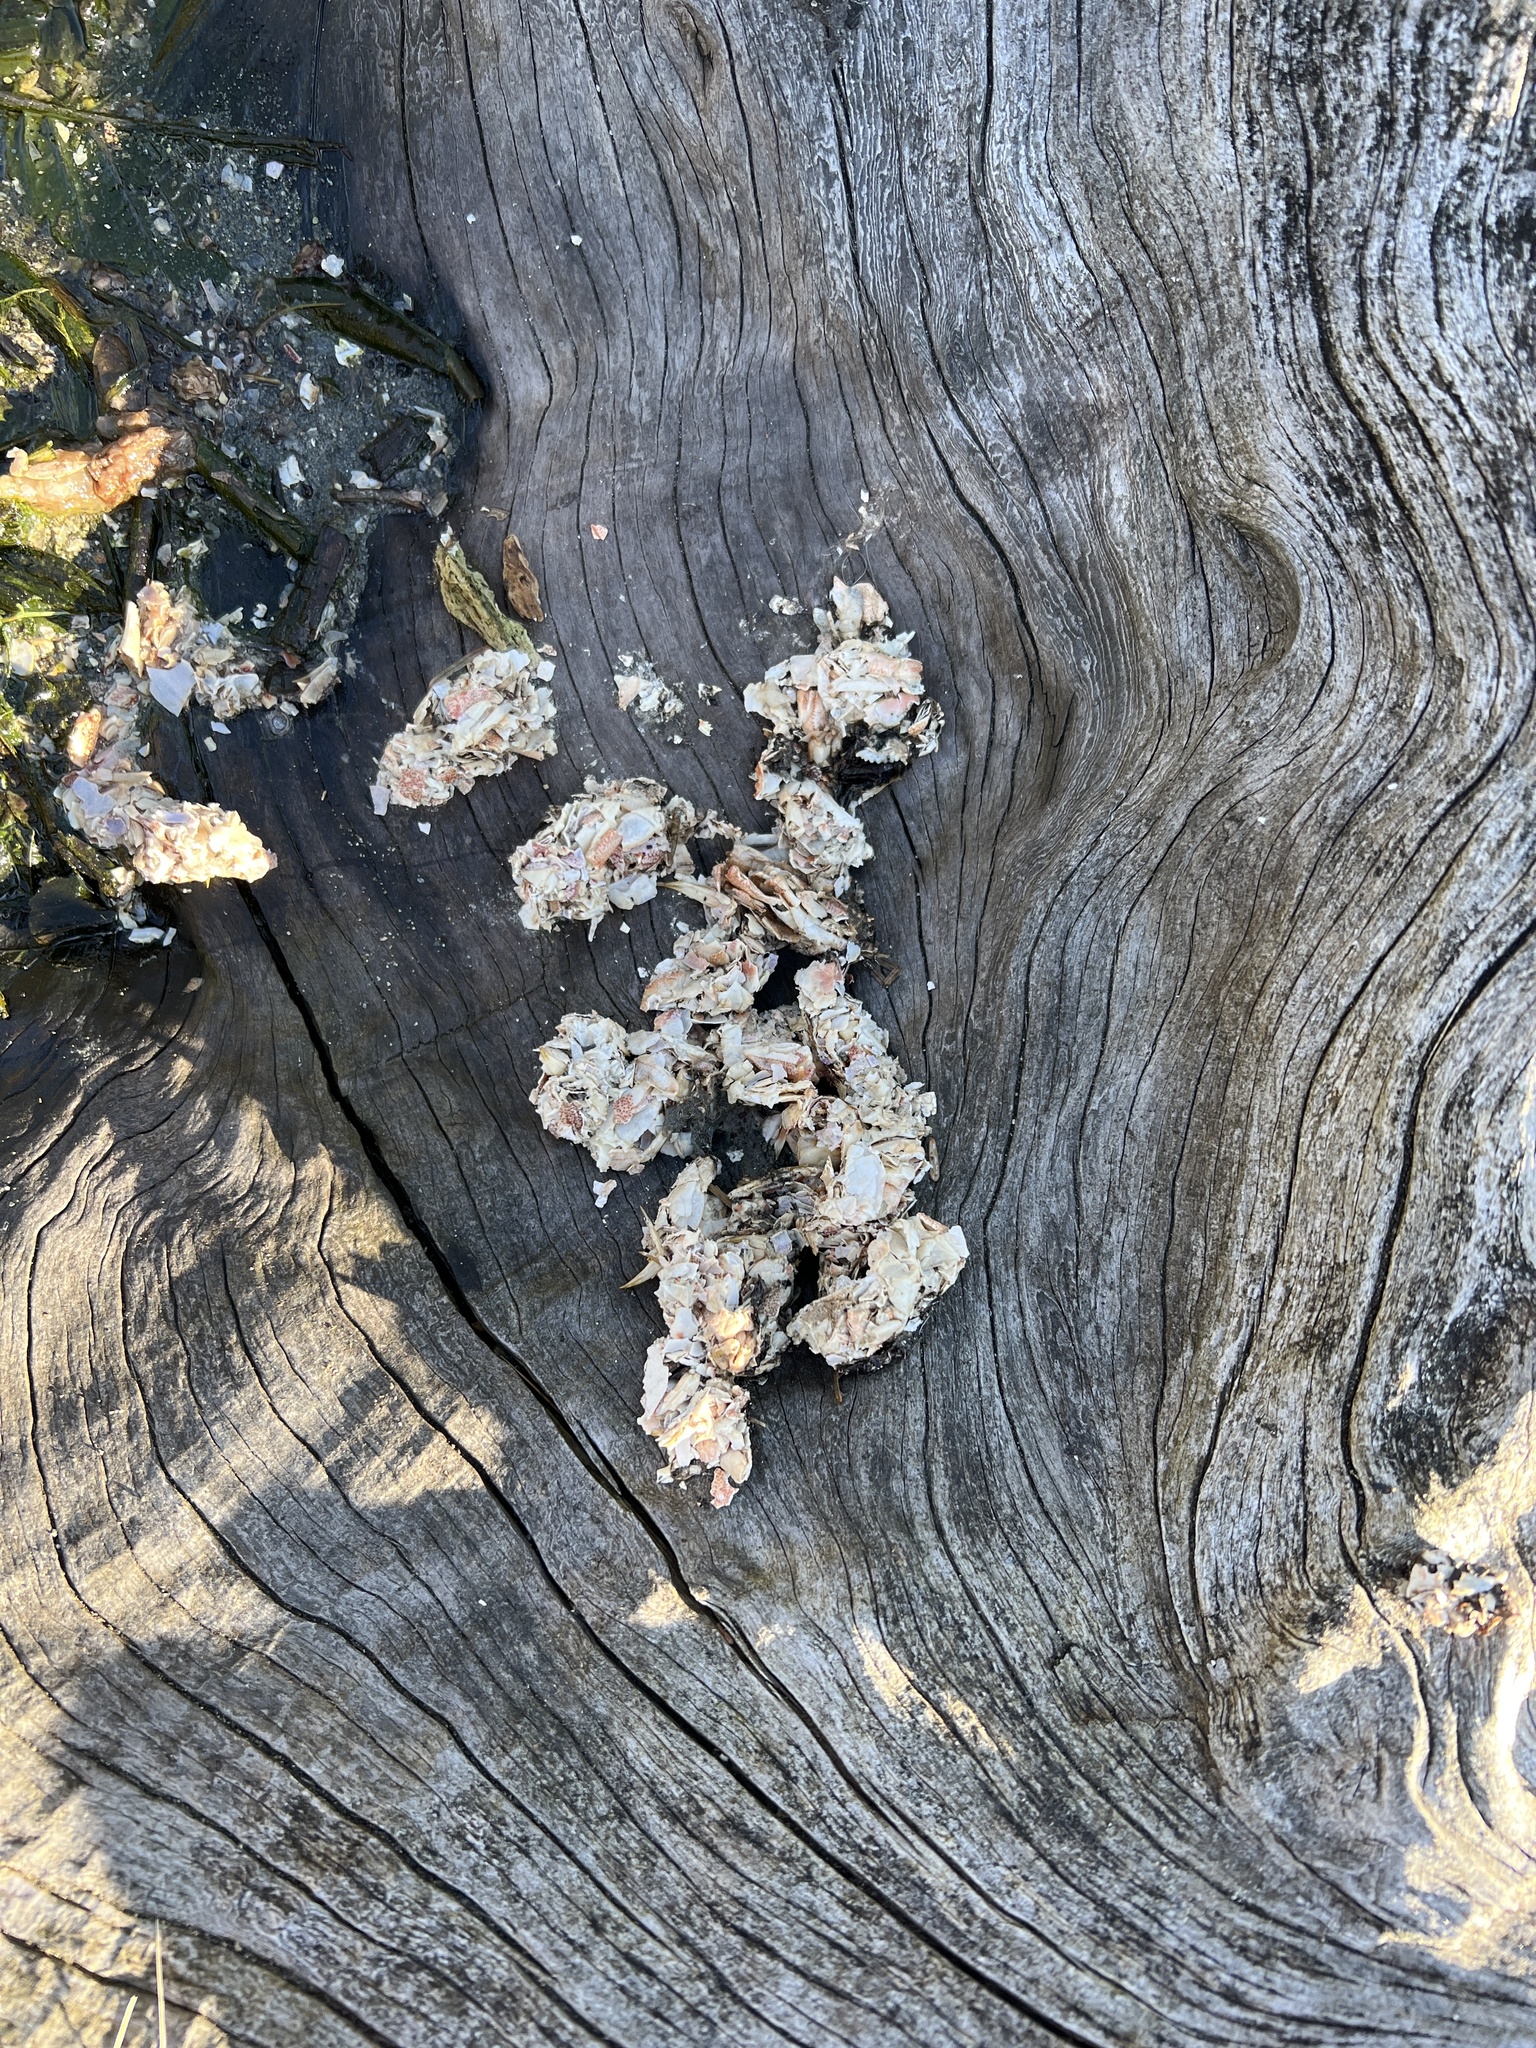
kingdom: Animalia
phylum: Chordata
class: Mammalia
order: Carnivora
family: Mustelidae
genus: Lontra
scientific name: Lontra canadensis
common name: North american river otter
